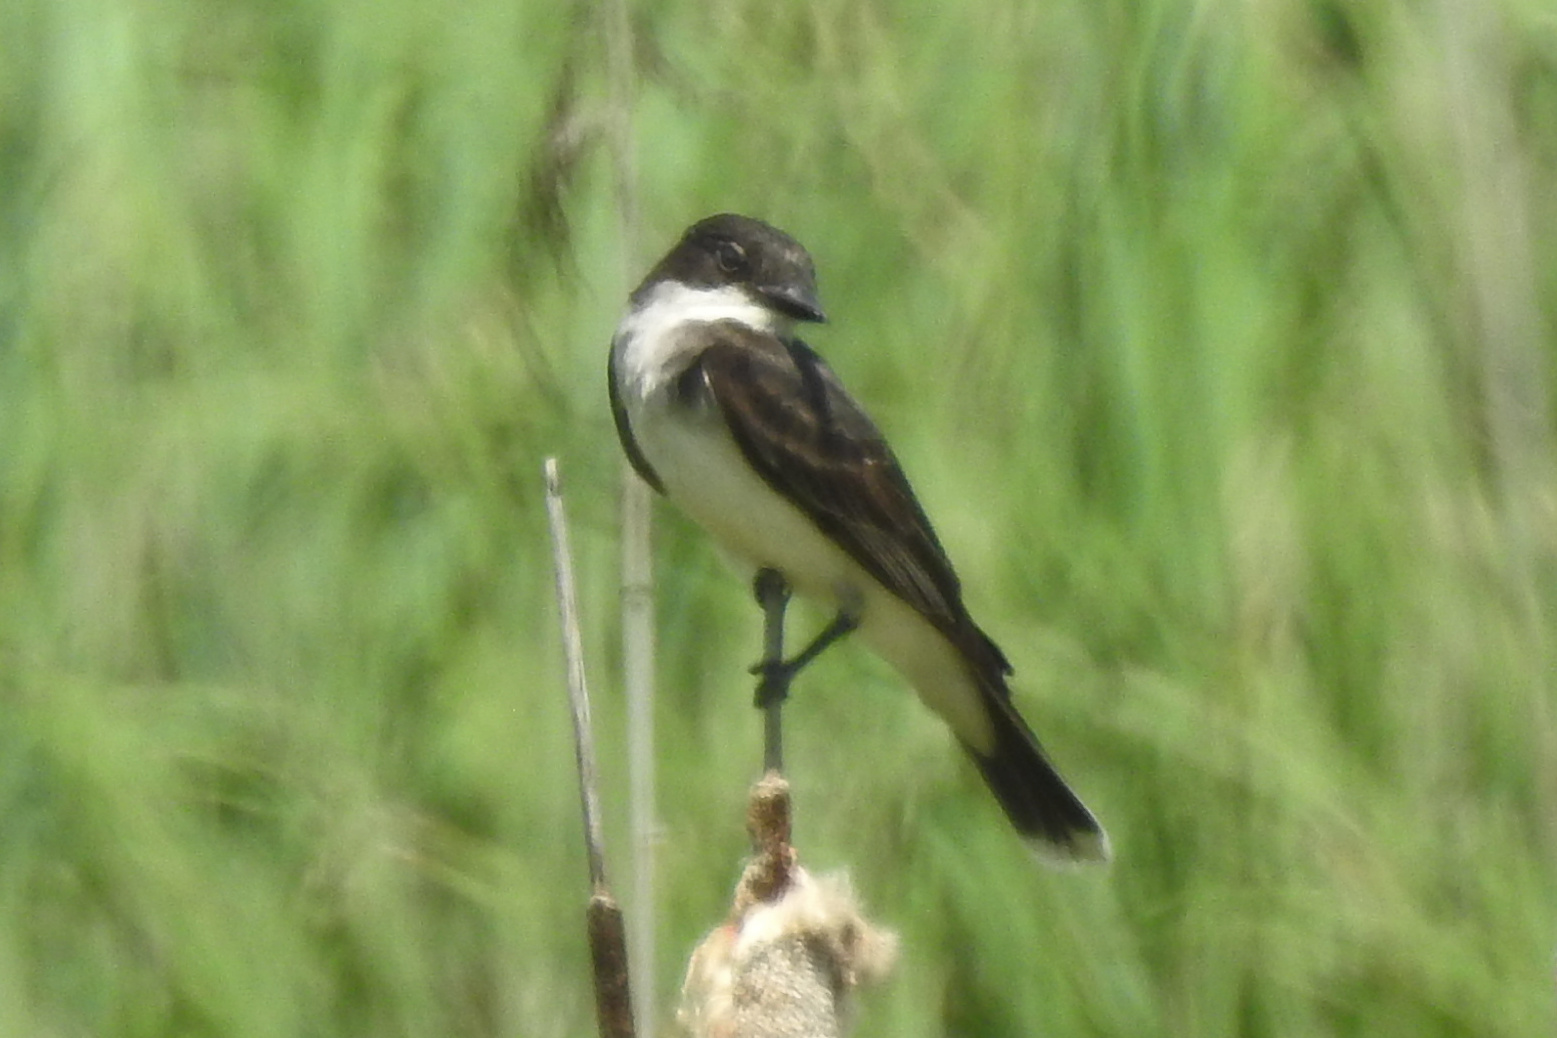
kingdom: Animalia
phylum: Chordata
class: Aves
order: Passeriformes
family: Tyrannidae
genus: Tyrannus
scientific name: Tyrannus tyrannus
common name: Eastern kingbird
